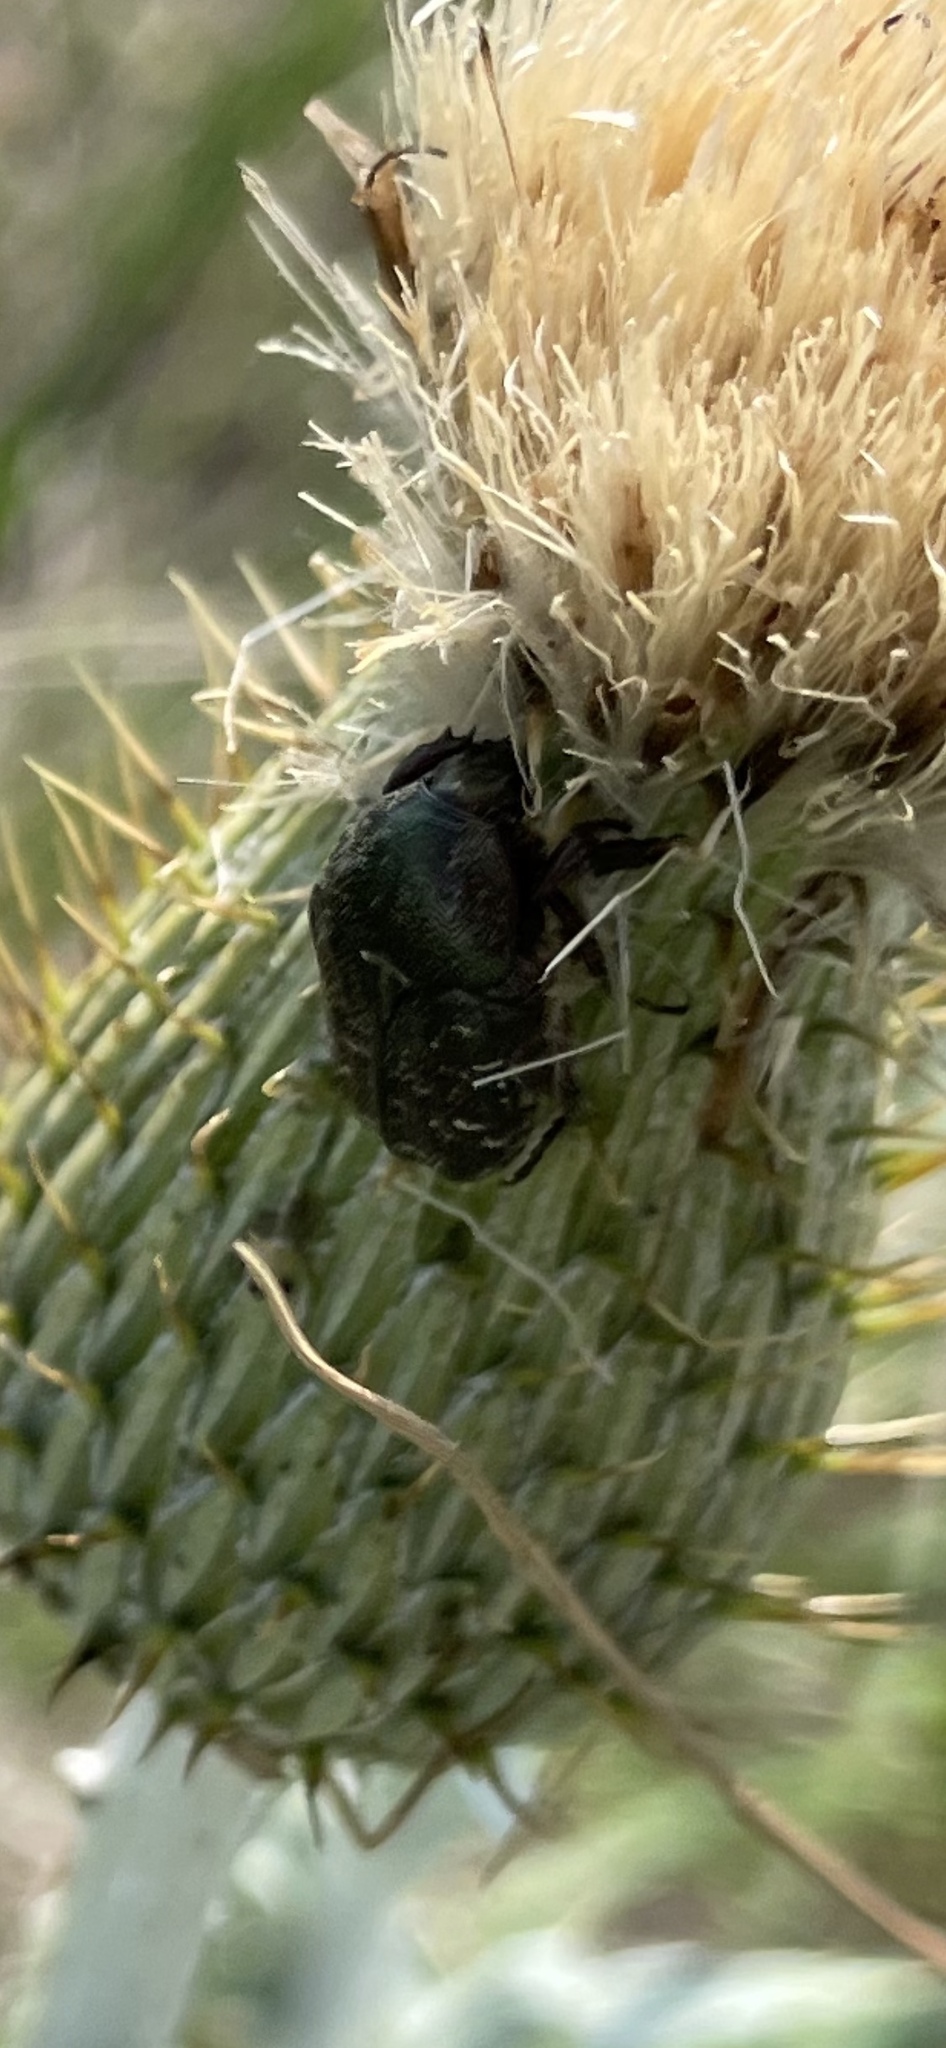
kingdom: Animalia
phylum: Arthropoda
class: Insecta
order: Coleoptera
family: Scarabaeidae
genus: Euphoria
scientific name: Euphoria sepulcralis
